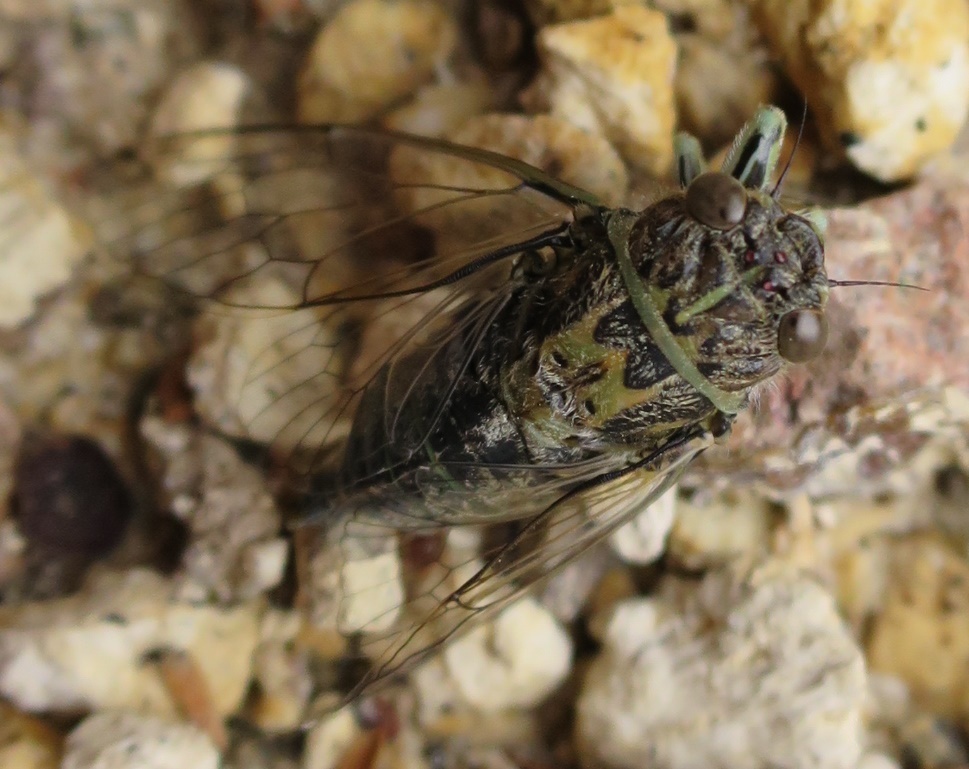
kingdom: Animalia
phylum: Arthropoda
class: Insecta
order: Hemiptera
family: Cicadidae
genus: Kikihia
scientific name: Kikihia scutellaris
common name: Lesser bronze cicada
